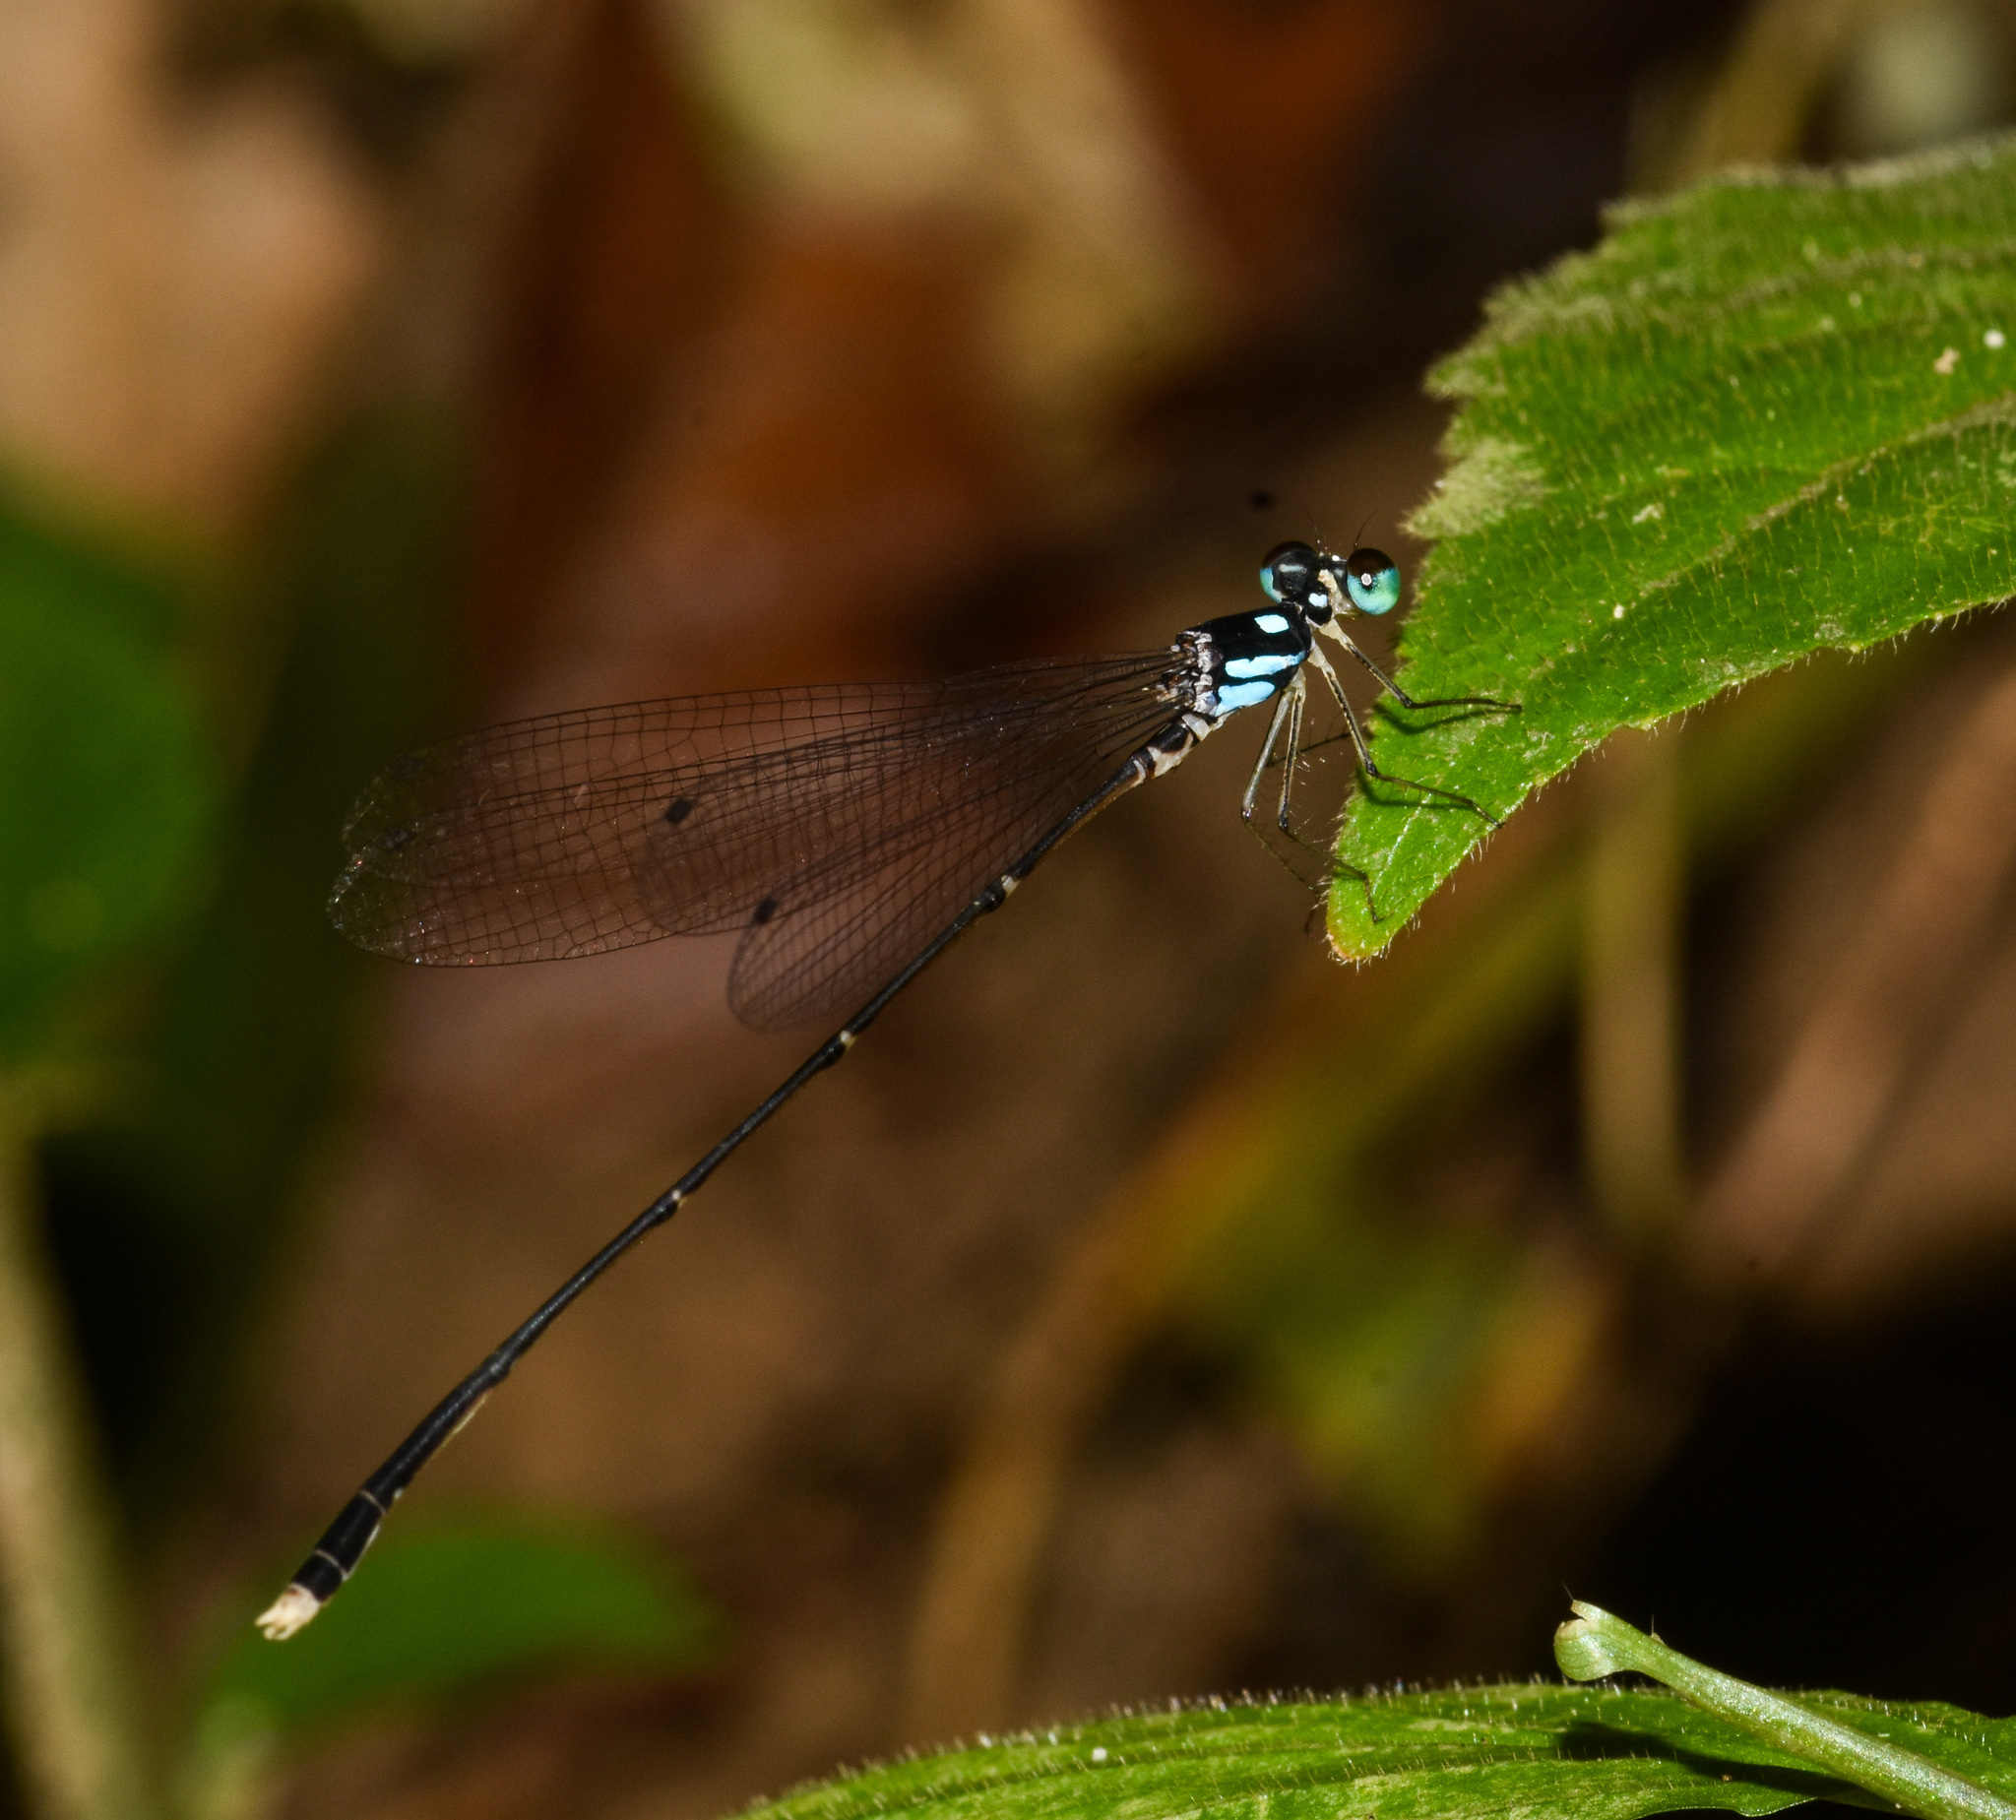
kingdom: Animalia
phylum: Arthropoda
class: Insecta
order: Odonata
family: Platycnemididae
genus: Coeliccia
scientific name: Coeliccia bimaculata
